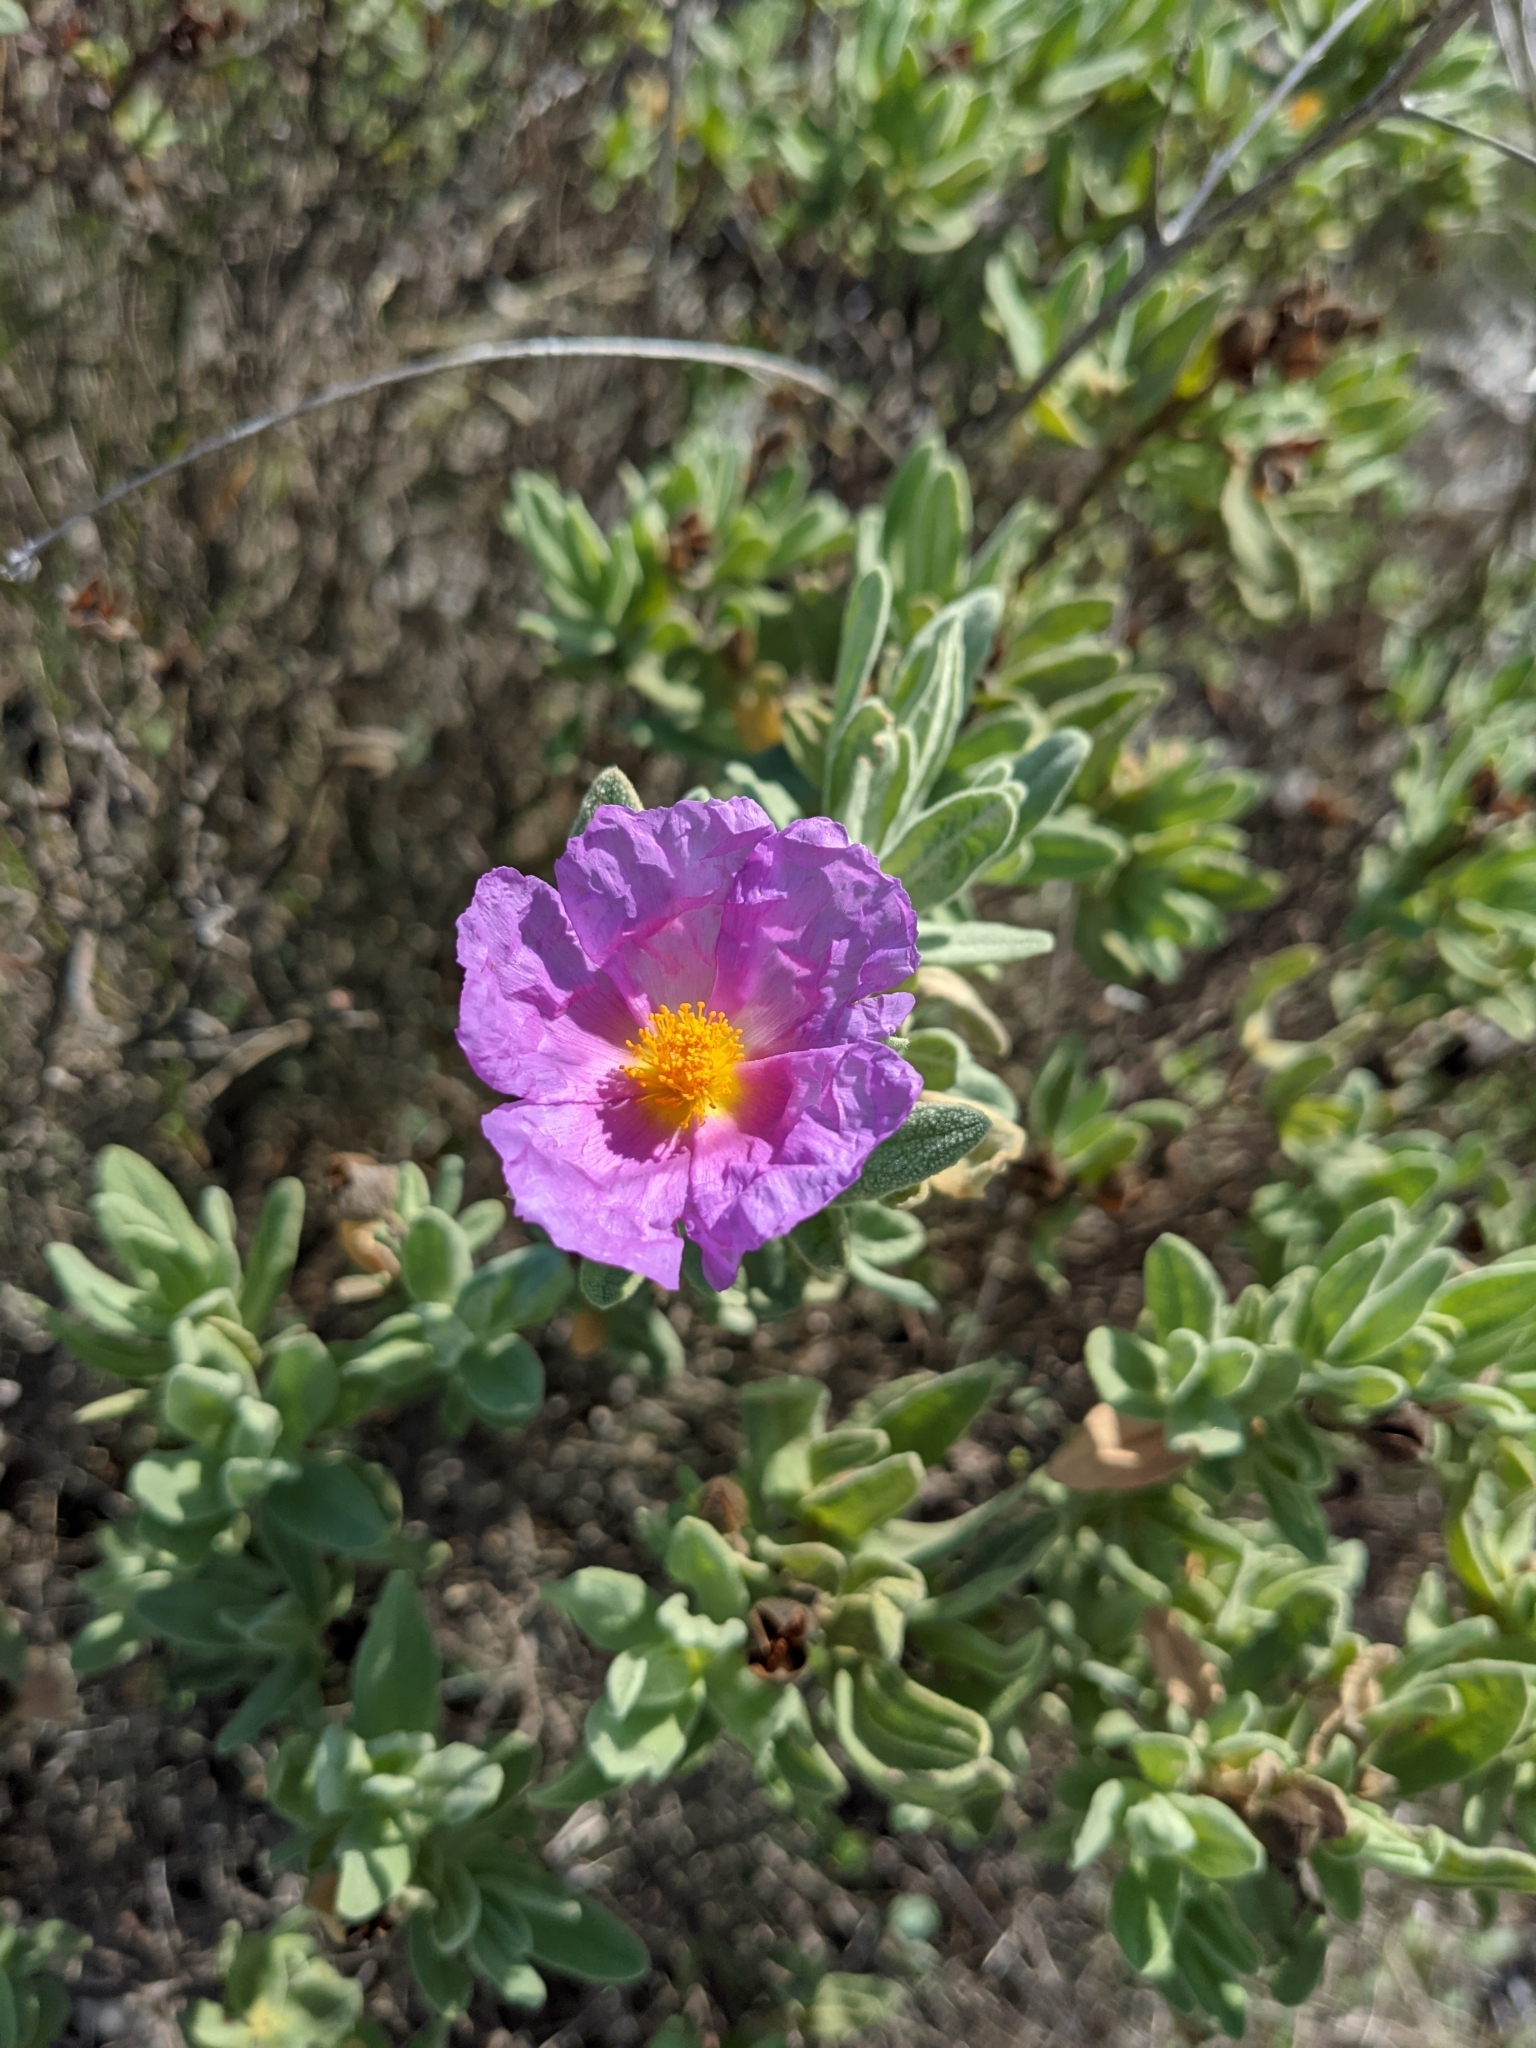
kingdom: Plantae
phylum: Tracheophyta
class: Magnoliopsida
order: Malvales
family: Cistaceae
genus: Cistus
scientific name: Cistus albidus
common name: White-leaf rock-rose
